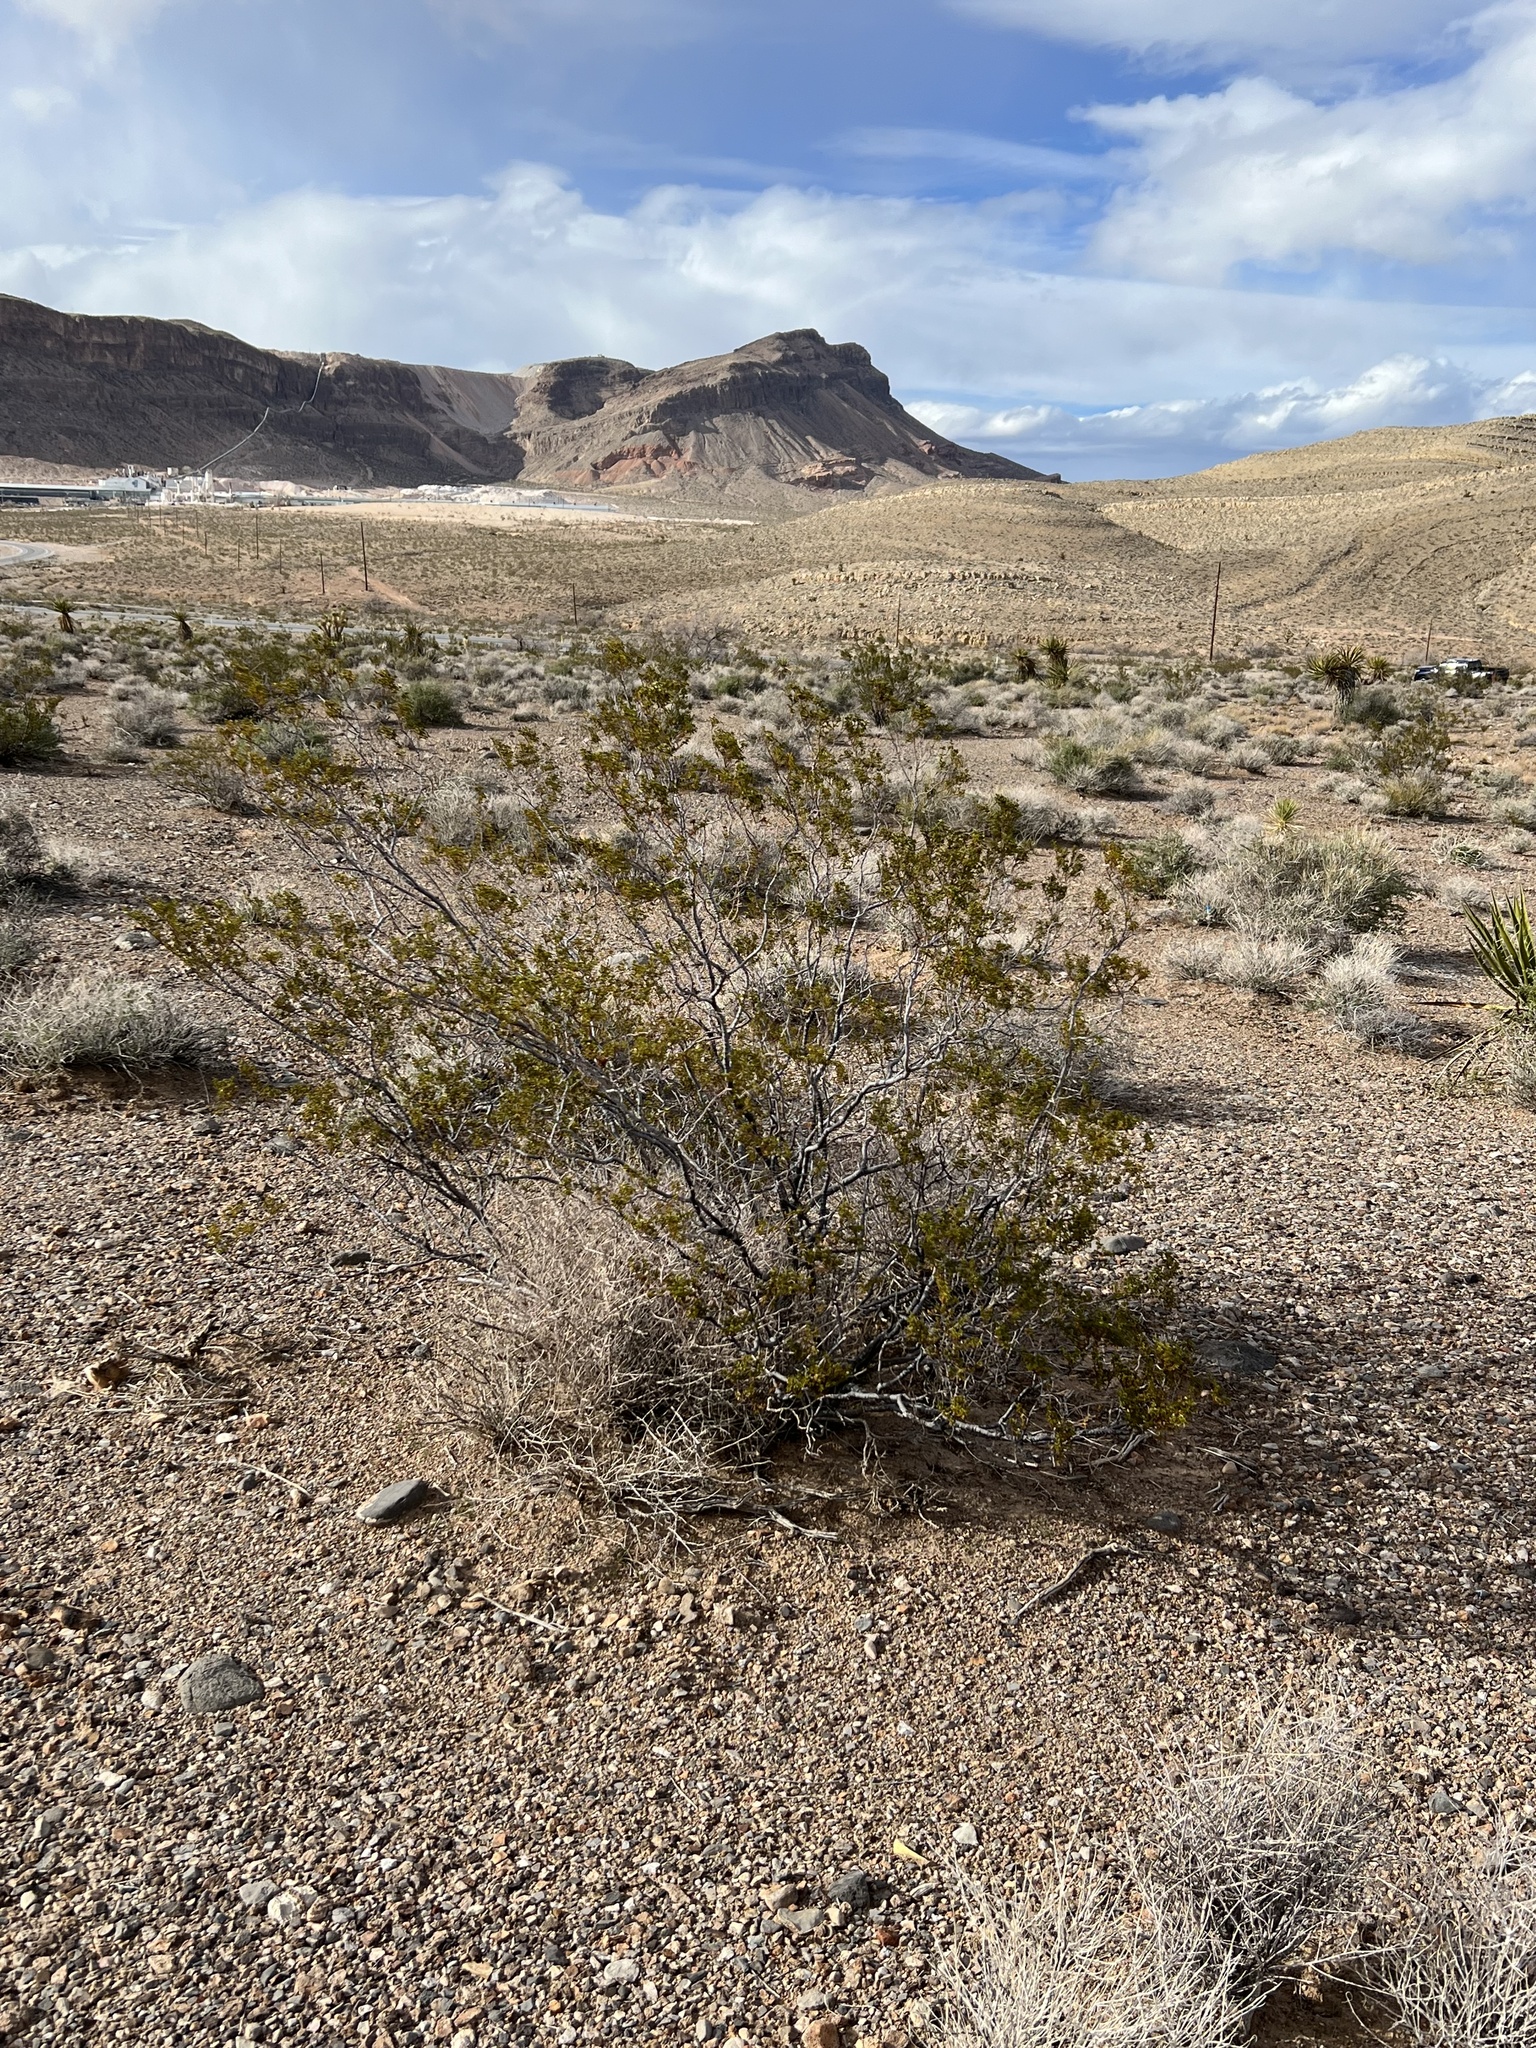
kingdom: Plantae
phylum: Tracheophyta
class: Magnoliopsida
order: Zygophyllales
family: Zygophyllaceae
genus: Larrea
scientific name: Larrea tridentata
